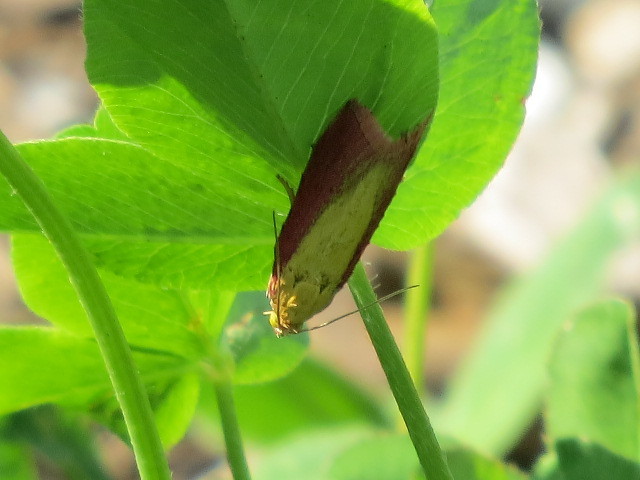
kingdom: Animalia
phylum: Arthropoda
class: Insecta
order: Lepidoptera
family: Pyralidae
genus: Oncocera
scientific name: Oncocera semirubella
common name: Rosy-striped knot-horn
